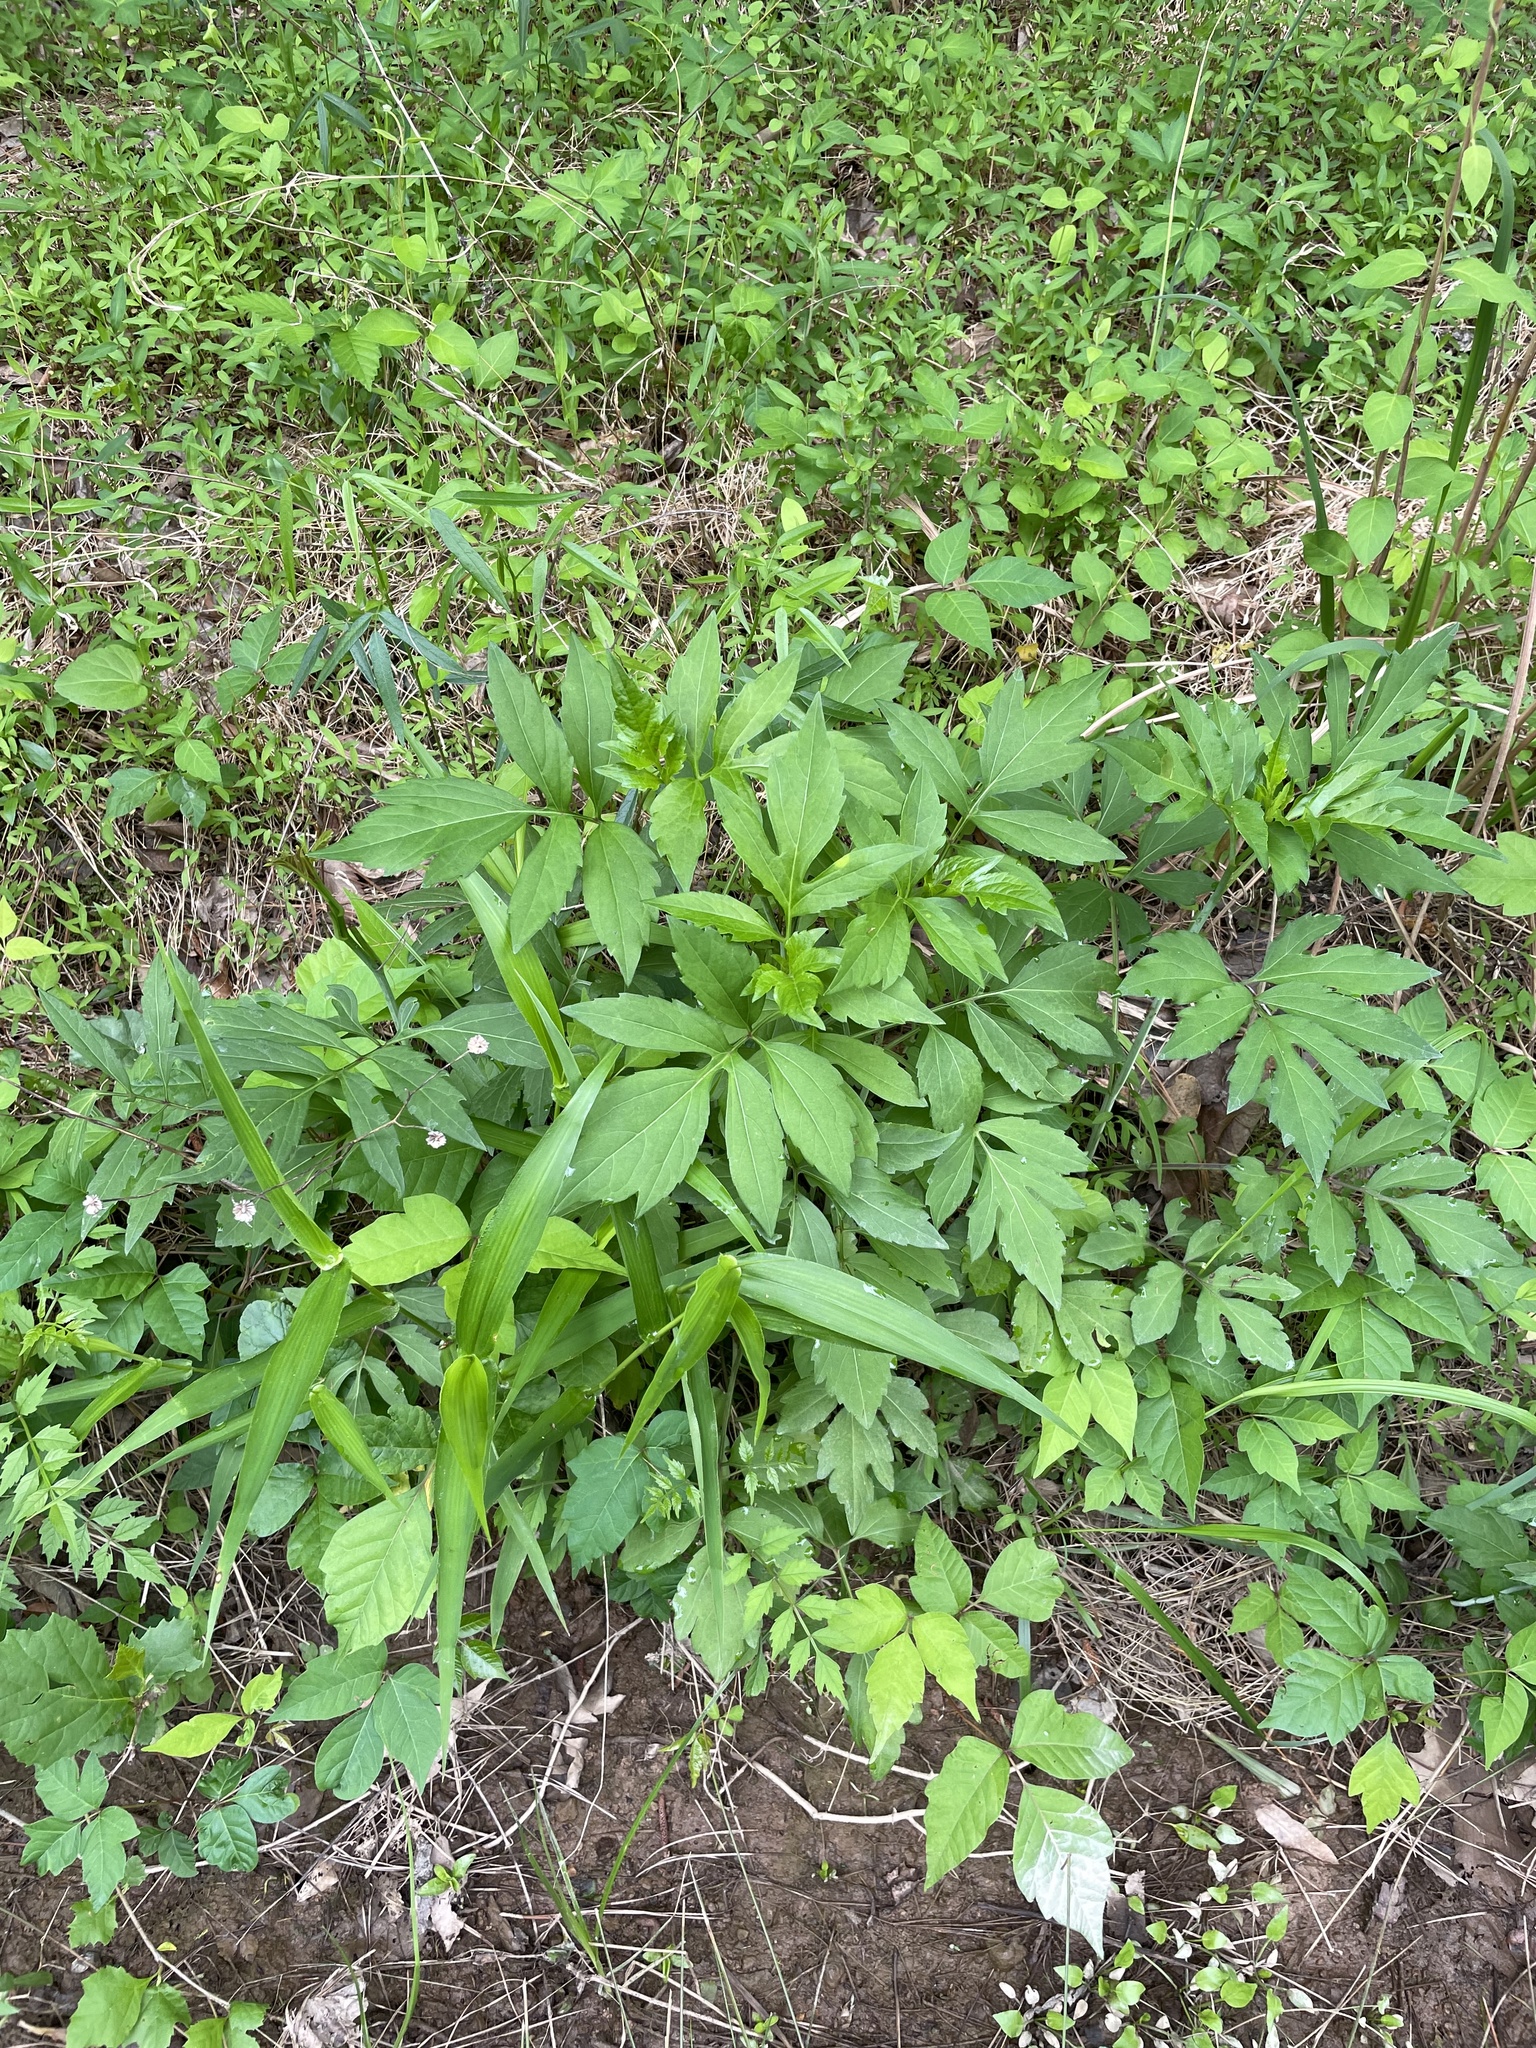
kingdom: Plantae
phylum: Tracheophyta
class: Magnoliopsida
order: Asterales
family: Asteraceae
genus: Rudbeckia
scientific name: Rudbeckia laciniata
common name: Coneflower
